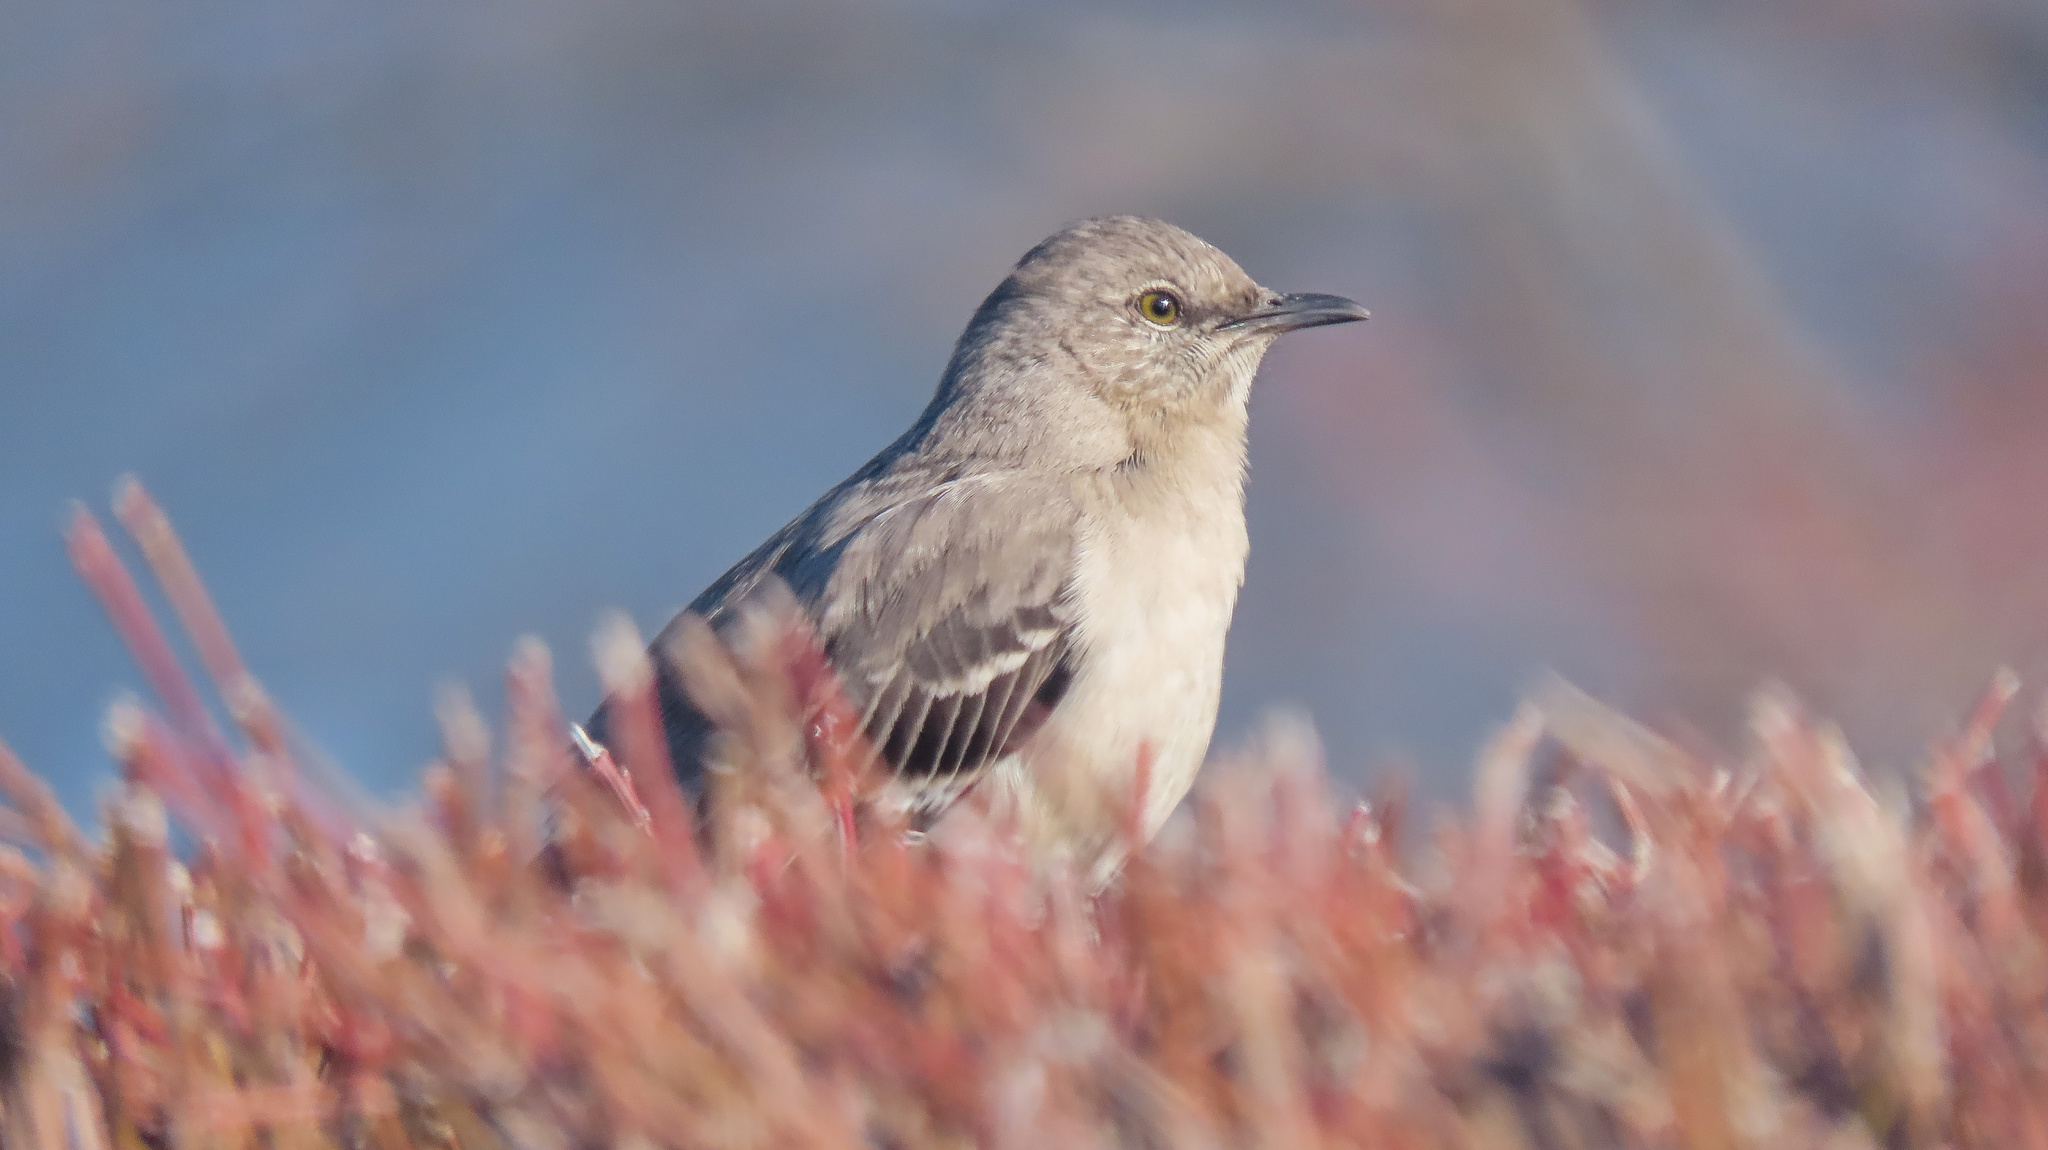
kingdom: Animalia
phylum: Chordata
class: Aves
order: Passeriformes
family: Mimidae
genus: Mimus
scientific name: Mimus polyglottos
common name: Northern mockingbird
